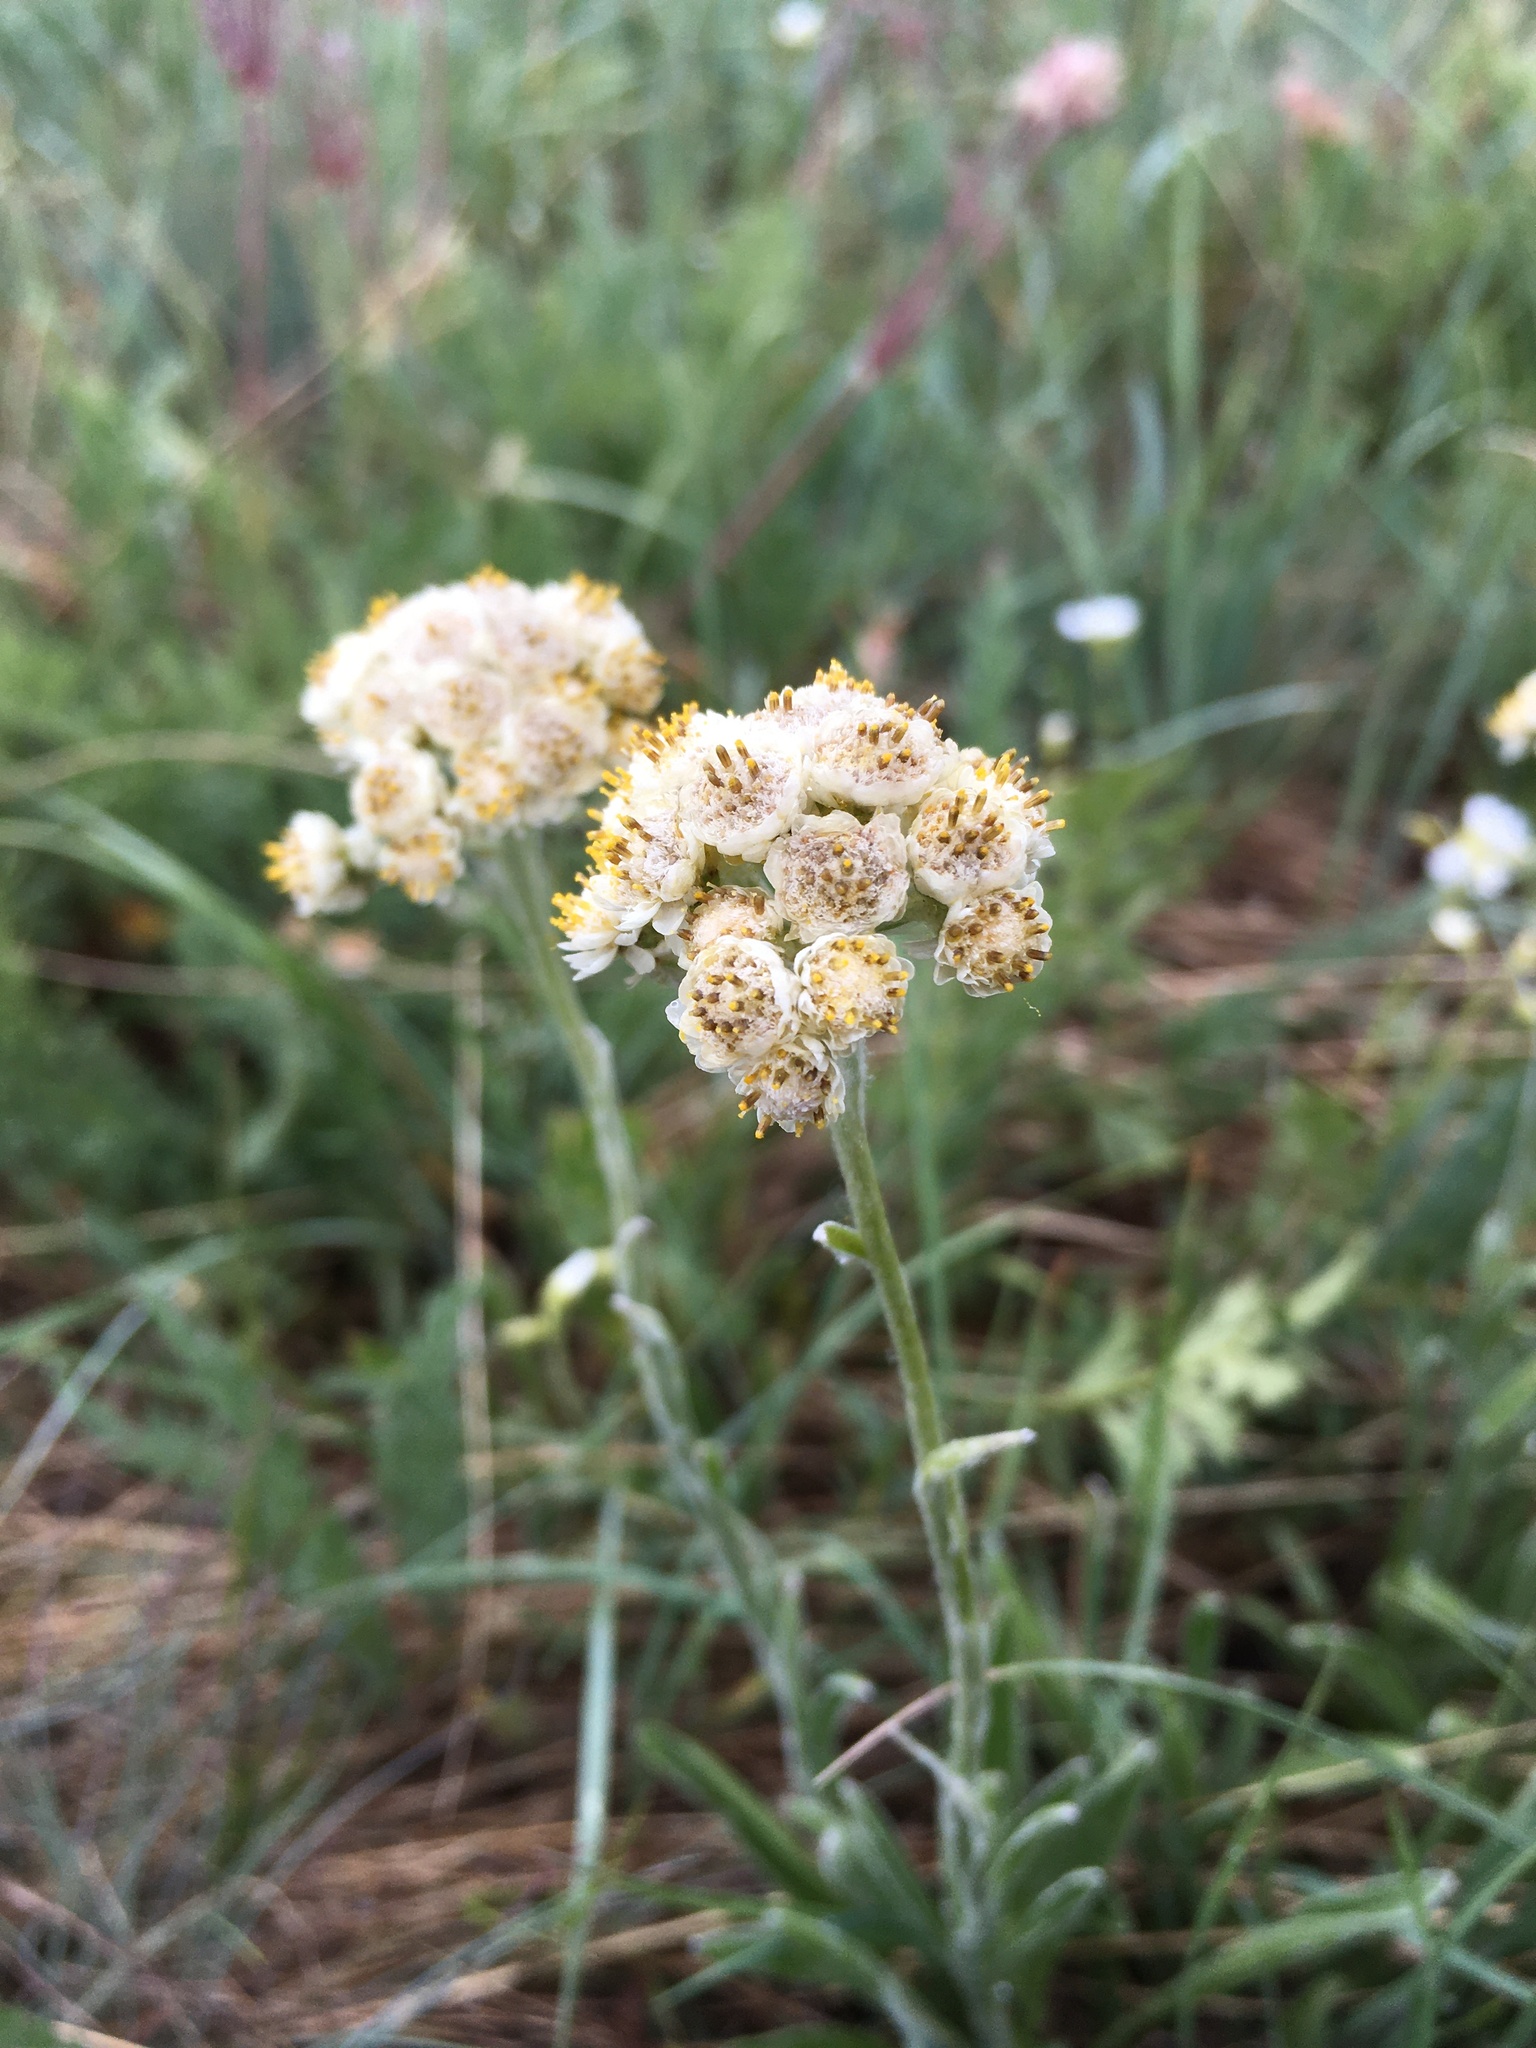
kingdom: Plantae
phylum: Tracheophyta
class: Magnoliopsida
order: Asterales
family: Asteraceae
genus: Antennaria
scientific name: Antennaria anaphaloides
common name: Tall pussytoes
